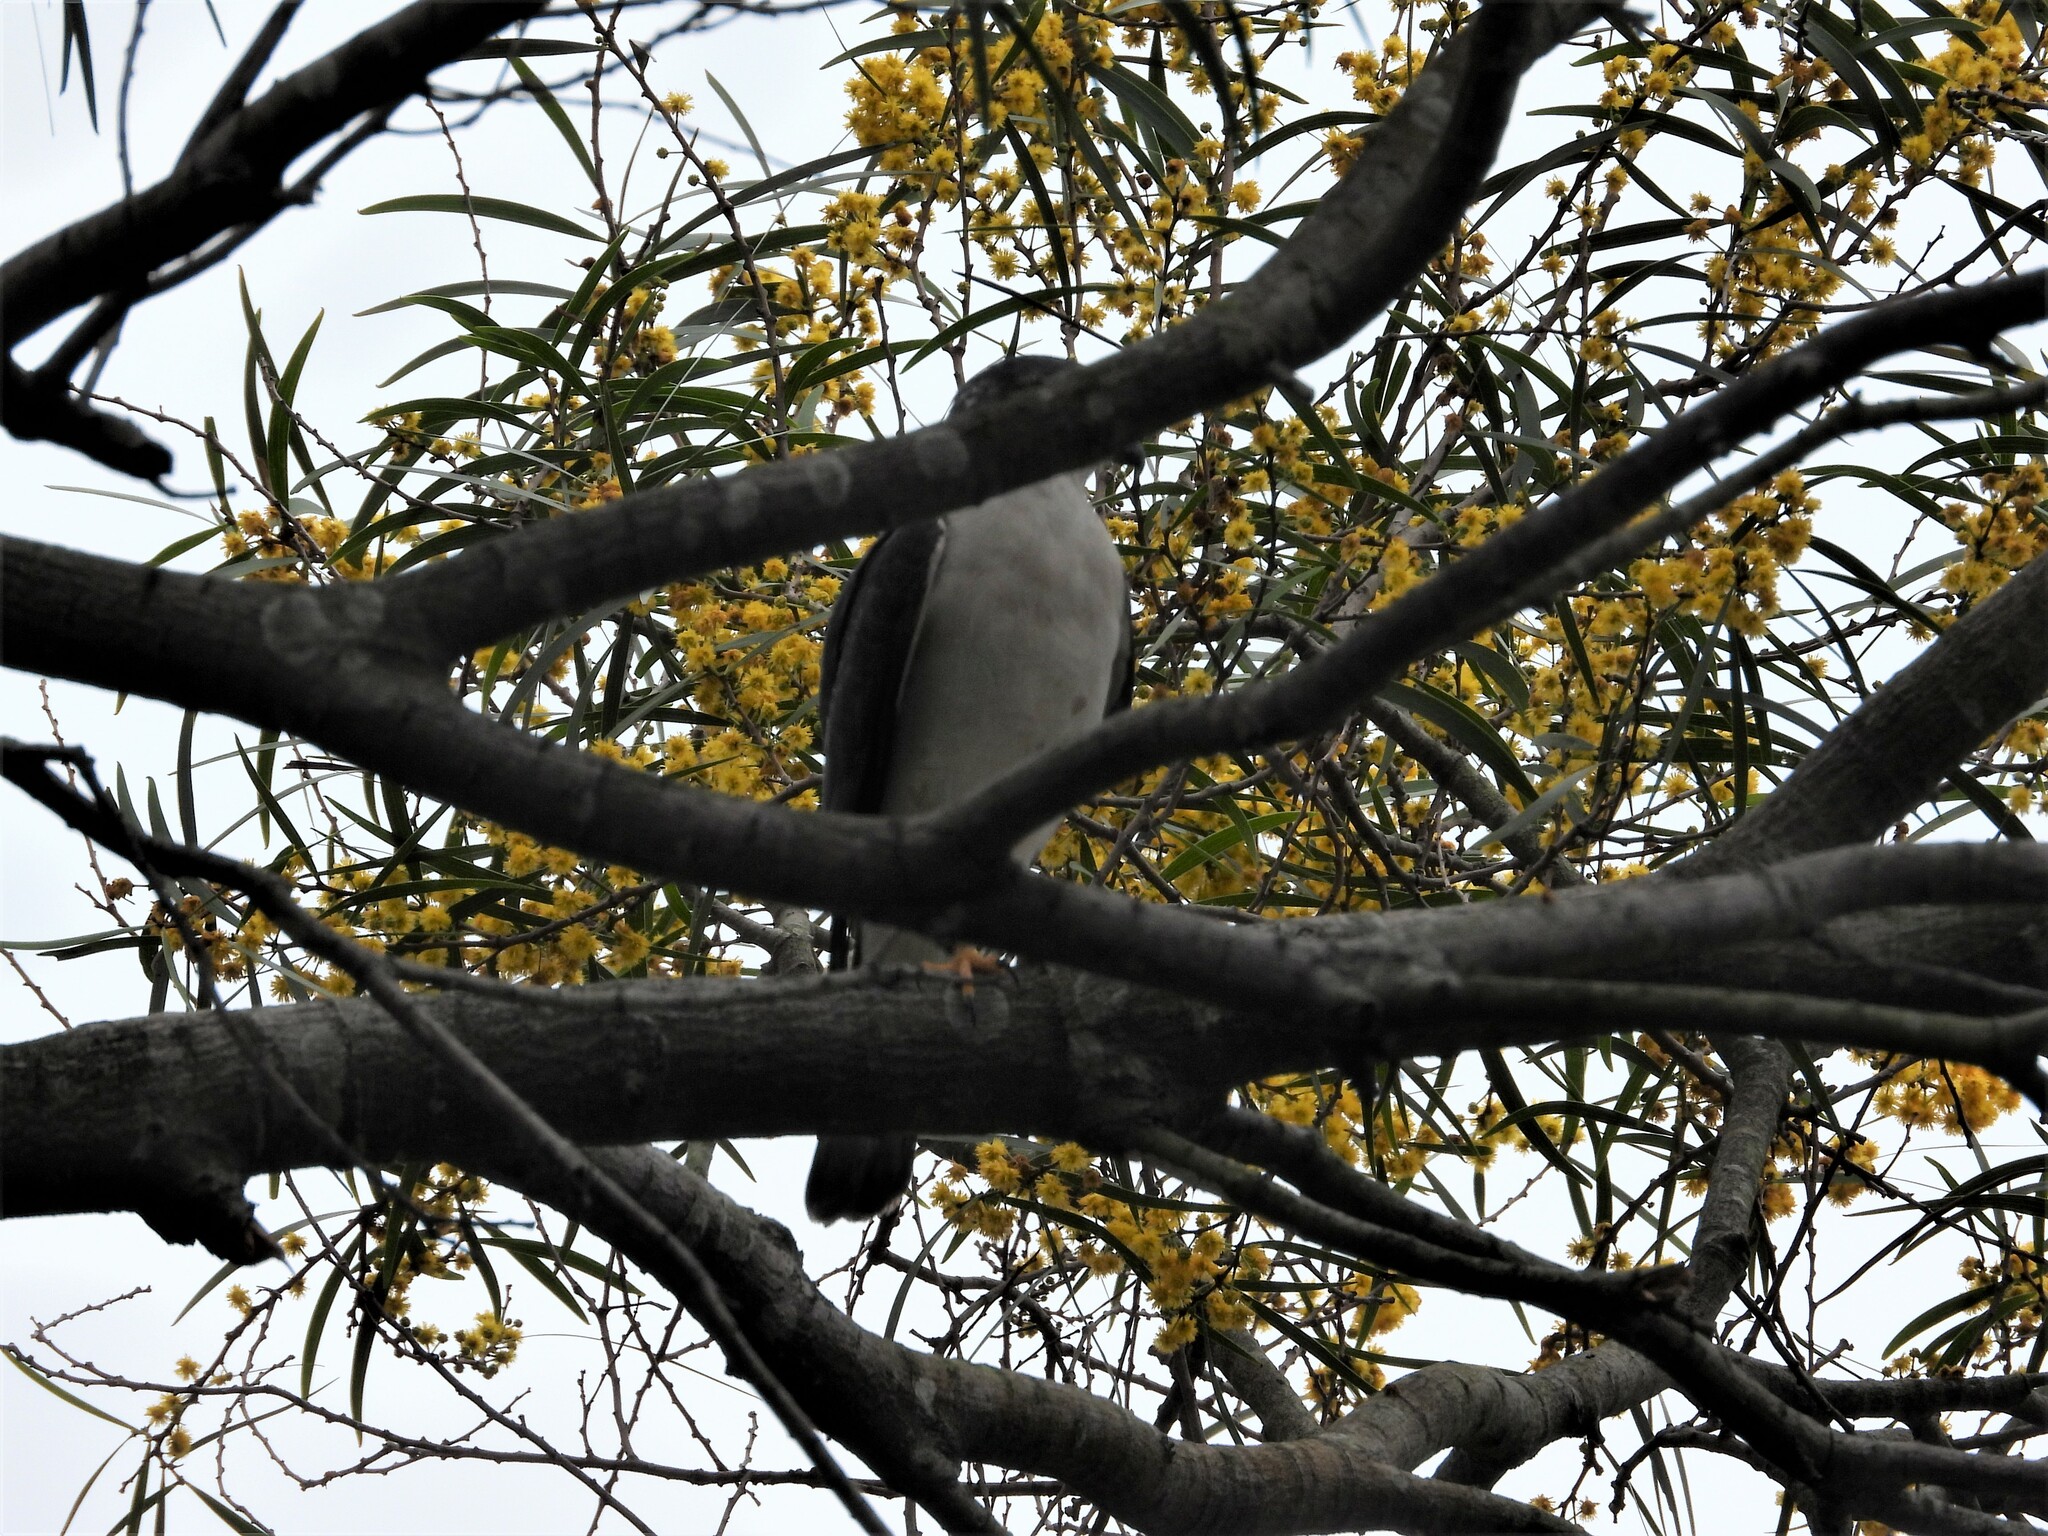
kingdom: Animalia
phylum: Chordata
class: Aves
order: Accipitriformes
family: Accipitridae
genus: Accipiter
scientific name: Accipiter soloensis
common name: Chinese sparrowhawk
